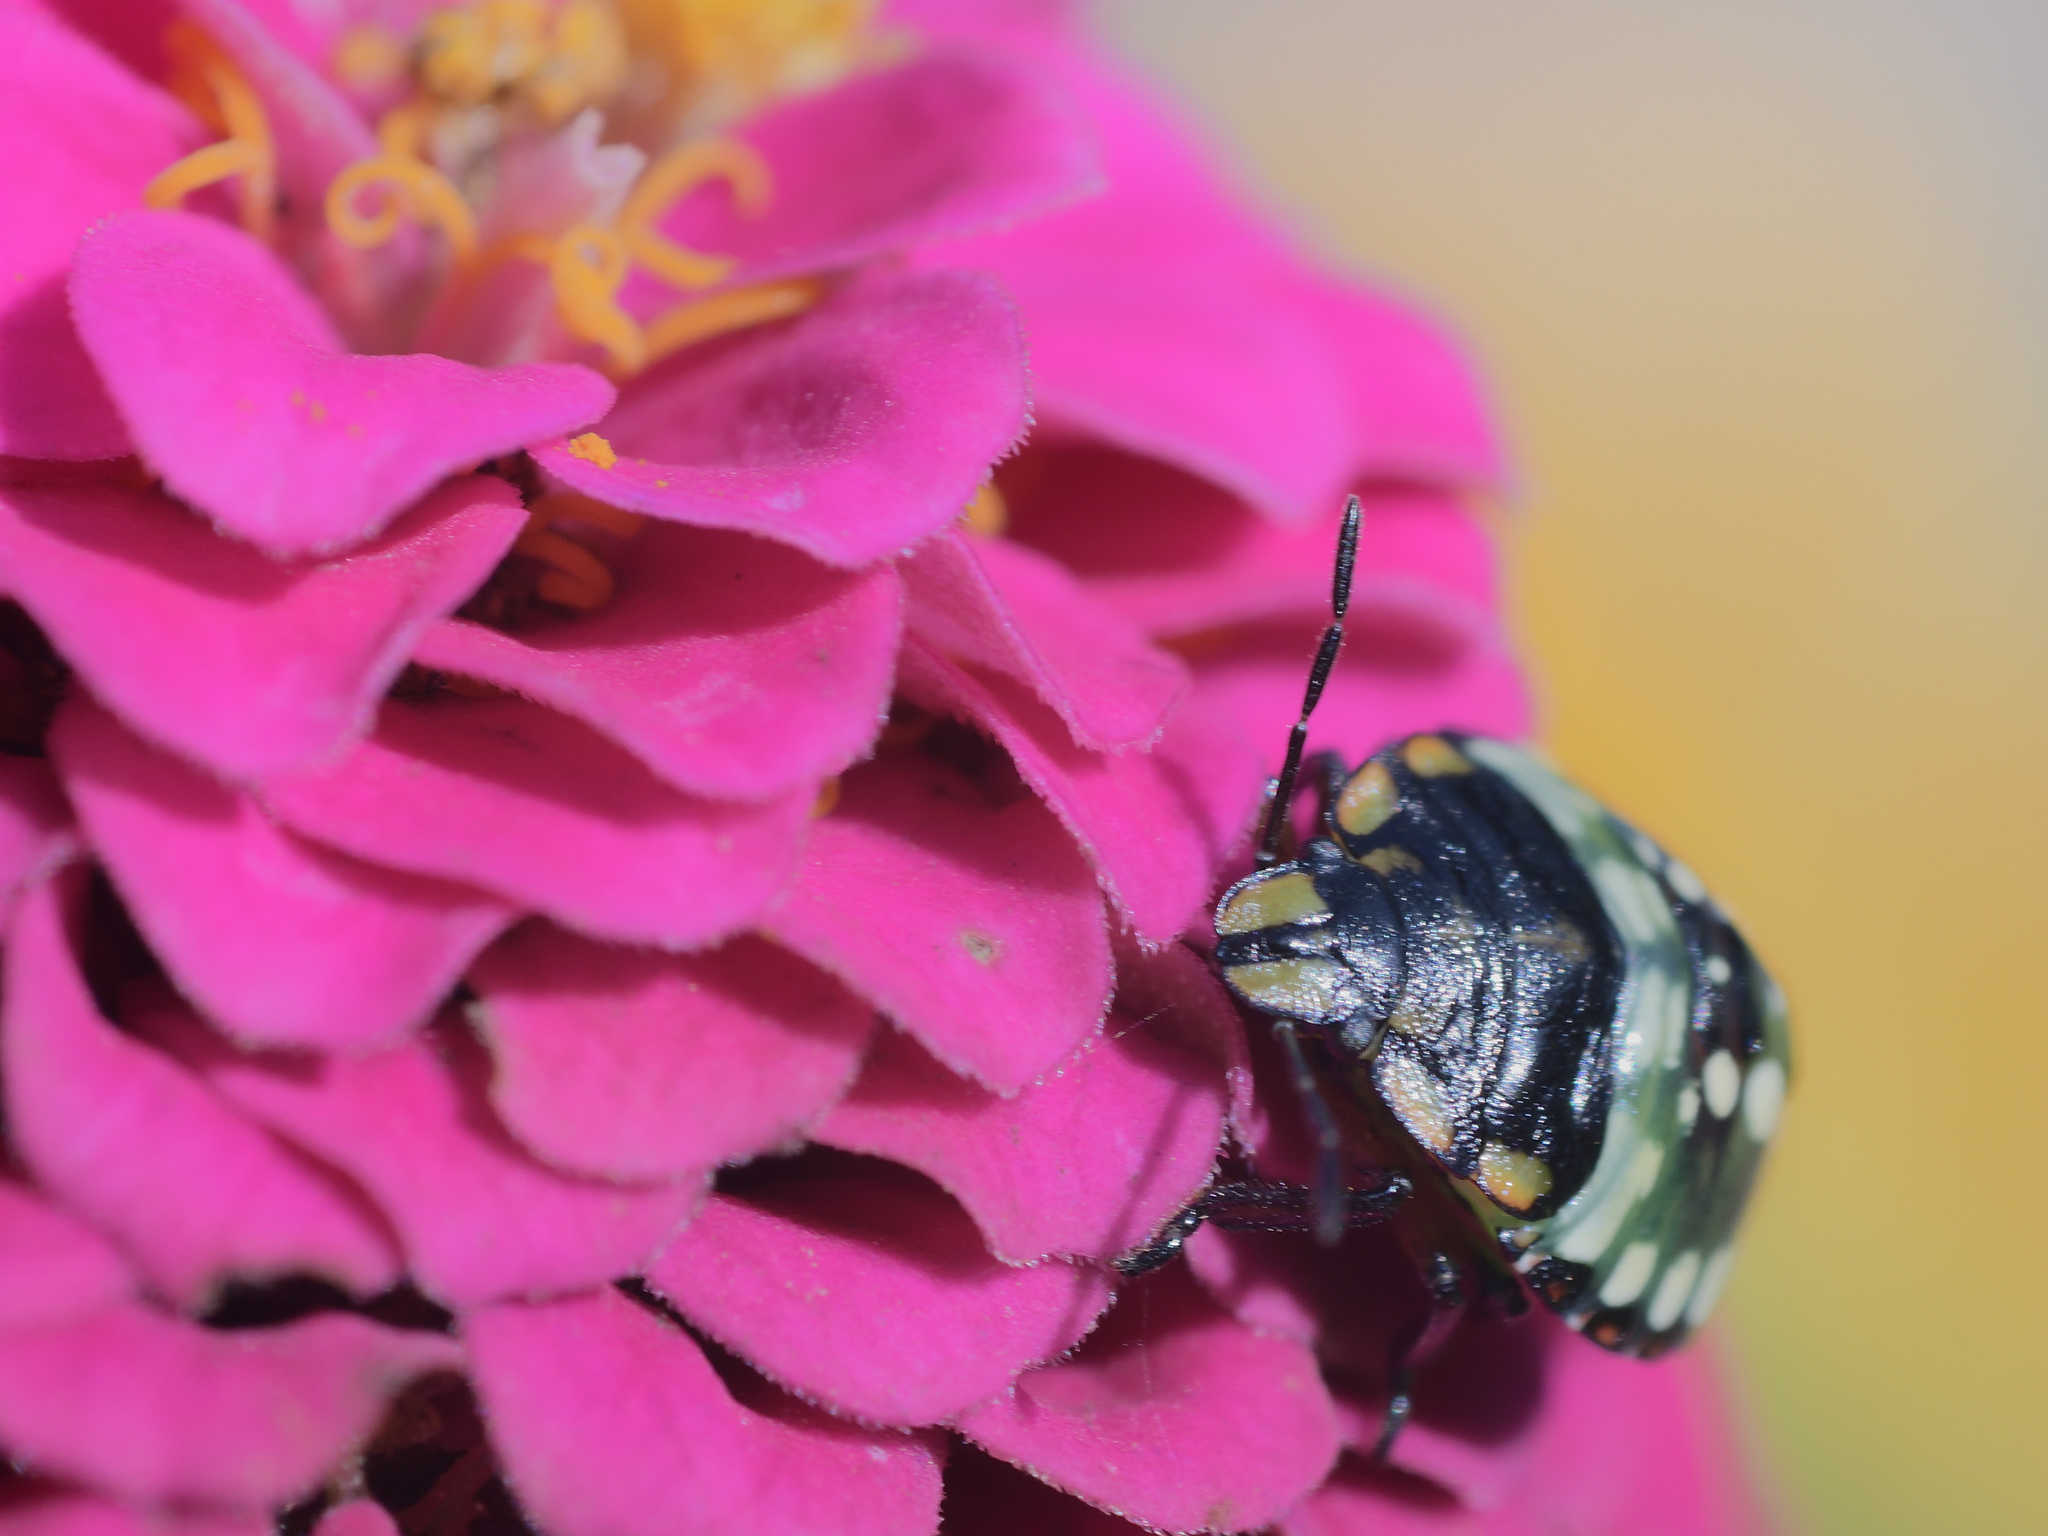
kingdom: Animalia
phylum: Arthropoda
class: Insecta
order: Hemiptera
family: Pentatomidae
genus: Nezara
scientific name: Nezara viridula
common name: Southern green stink bug
